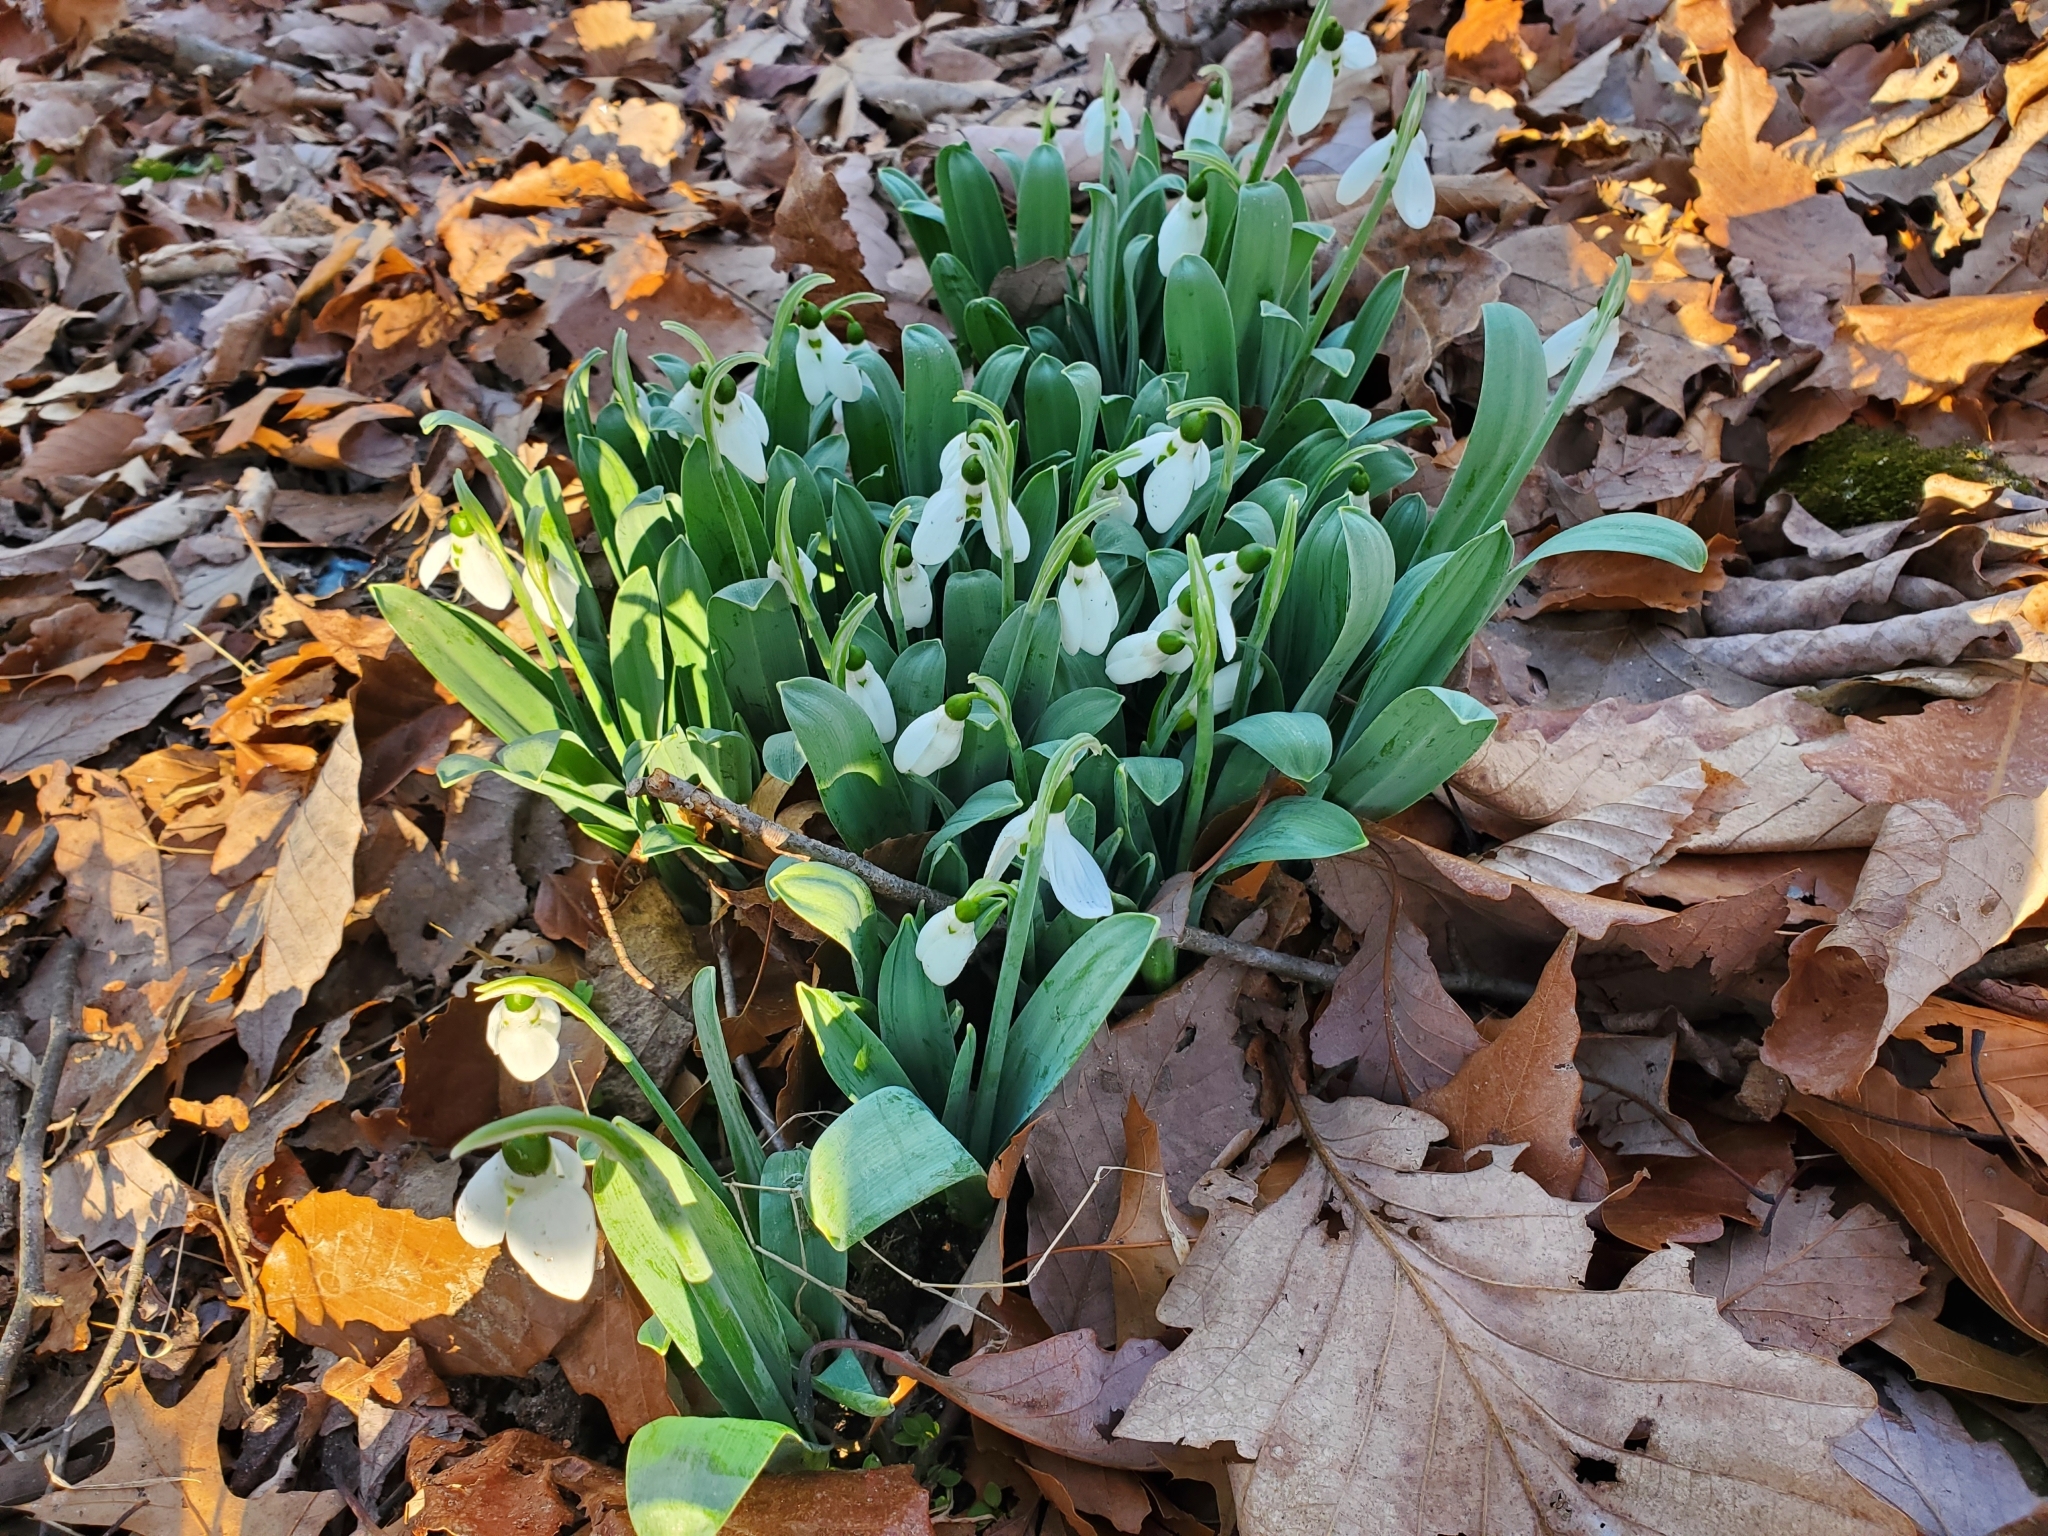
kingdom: Plantae
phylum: Tracheophyta
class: Liliopsida
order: Asparagales
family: Amaryllidaceae
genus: Galanthus
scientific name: Galanthus elwesii
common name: Greater snowdrop
